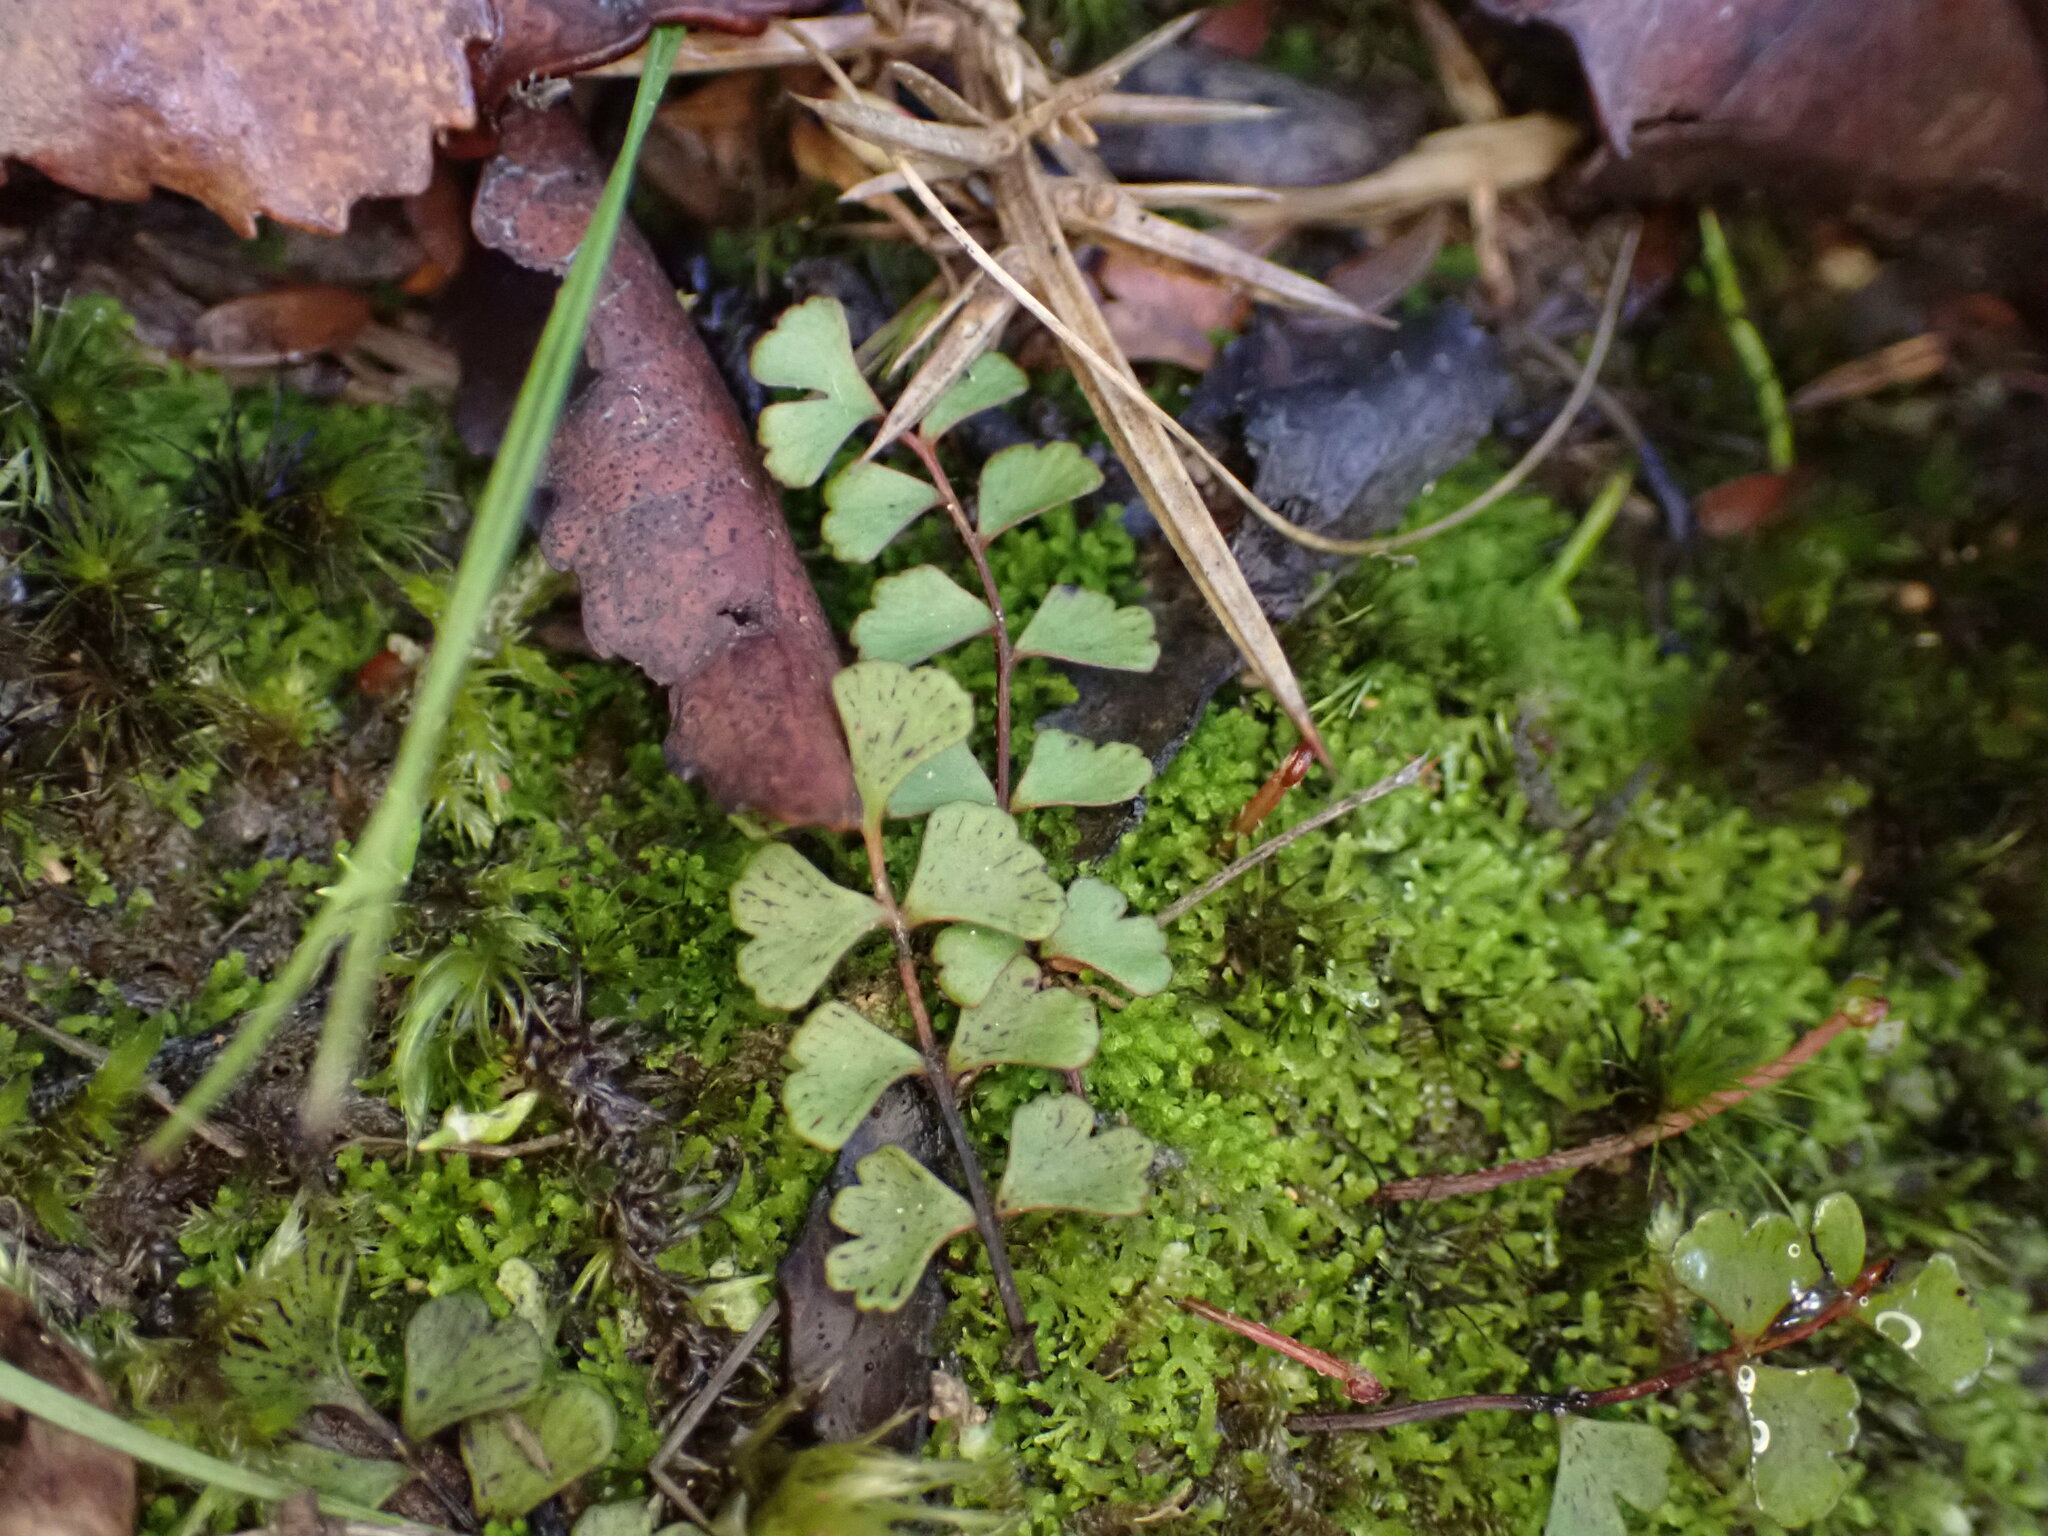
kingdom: Plantae
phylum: Tracheophyta
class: Polypodiopsida
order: Polypodiales
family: Lindsaeaceae
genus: Lindsaea
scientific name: Lindsaea linearis
